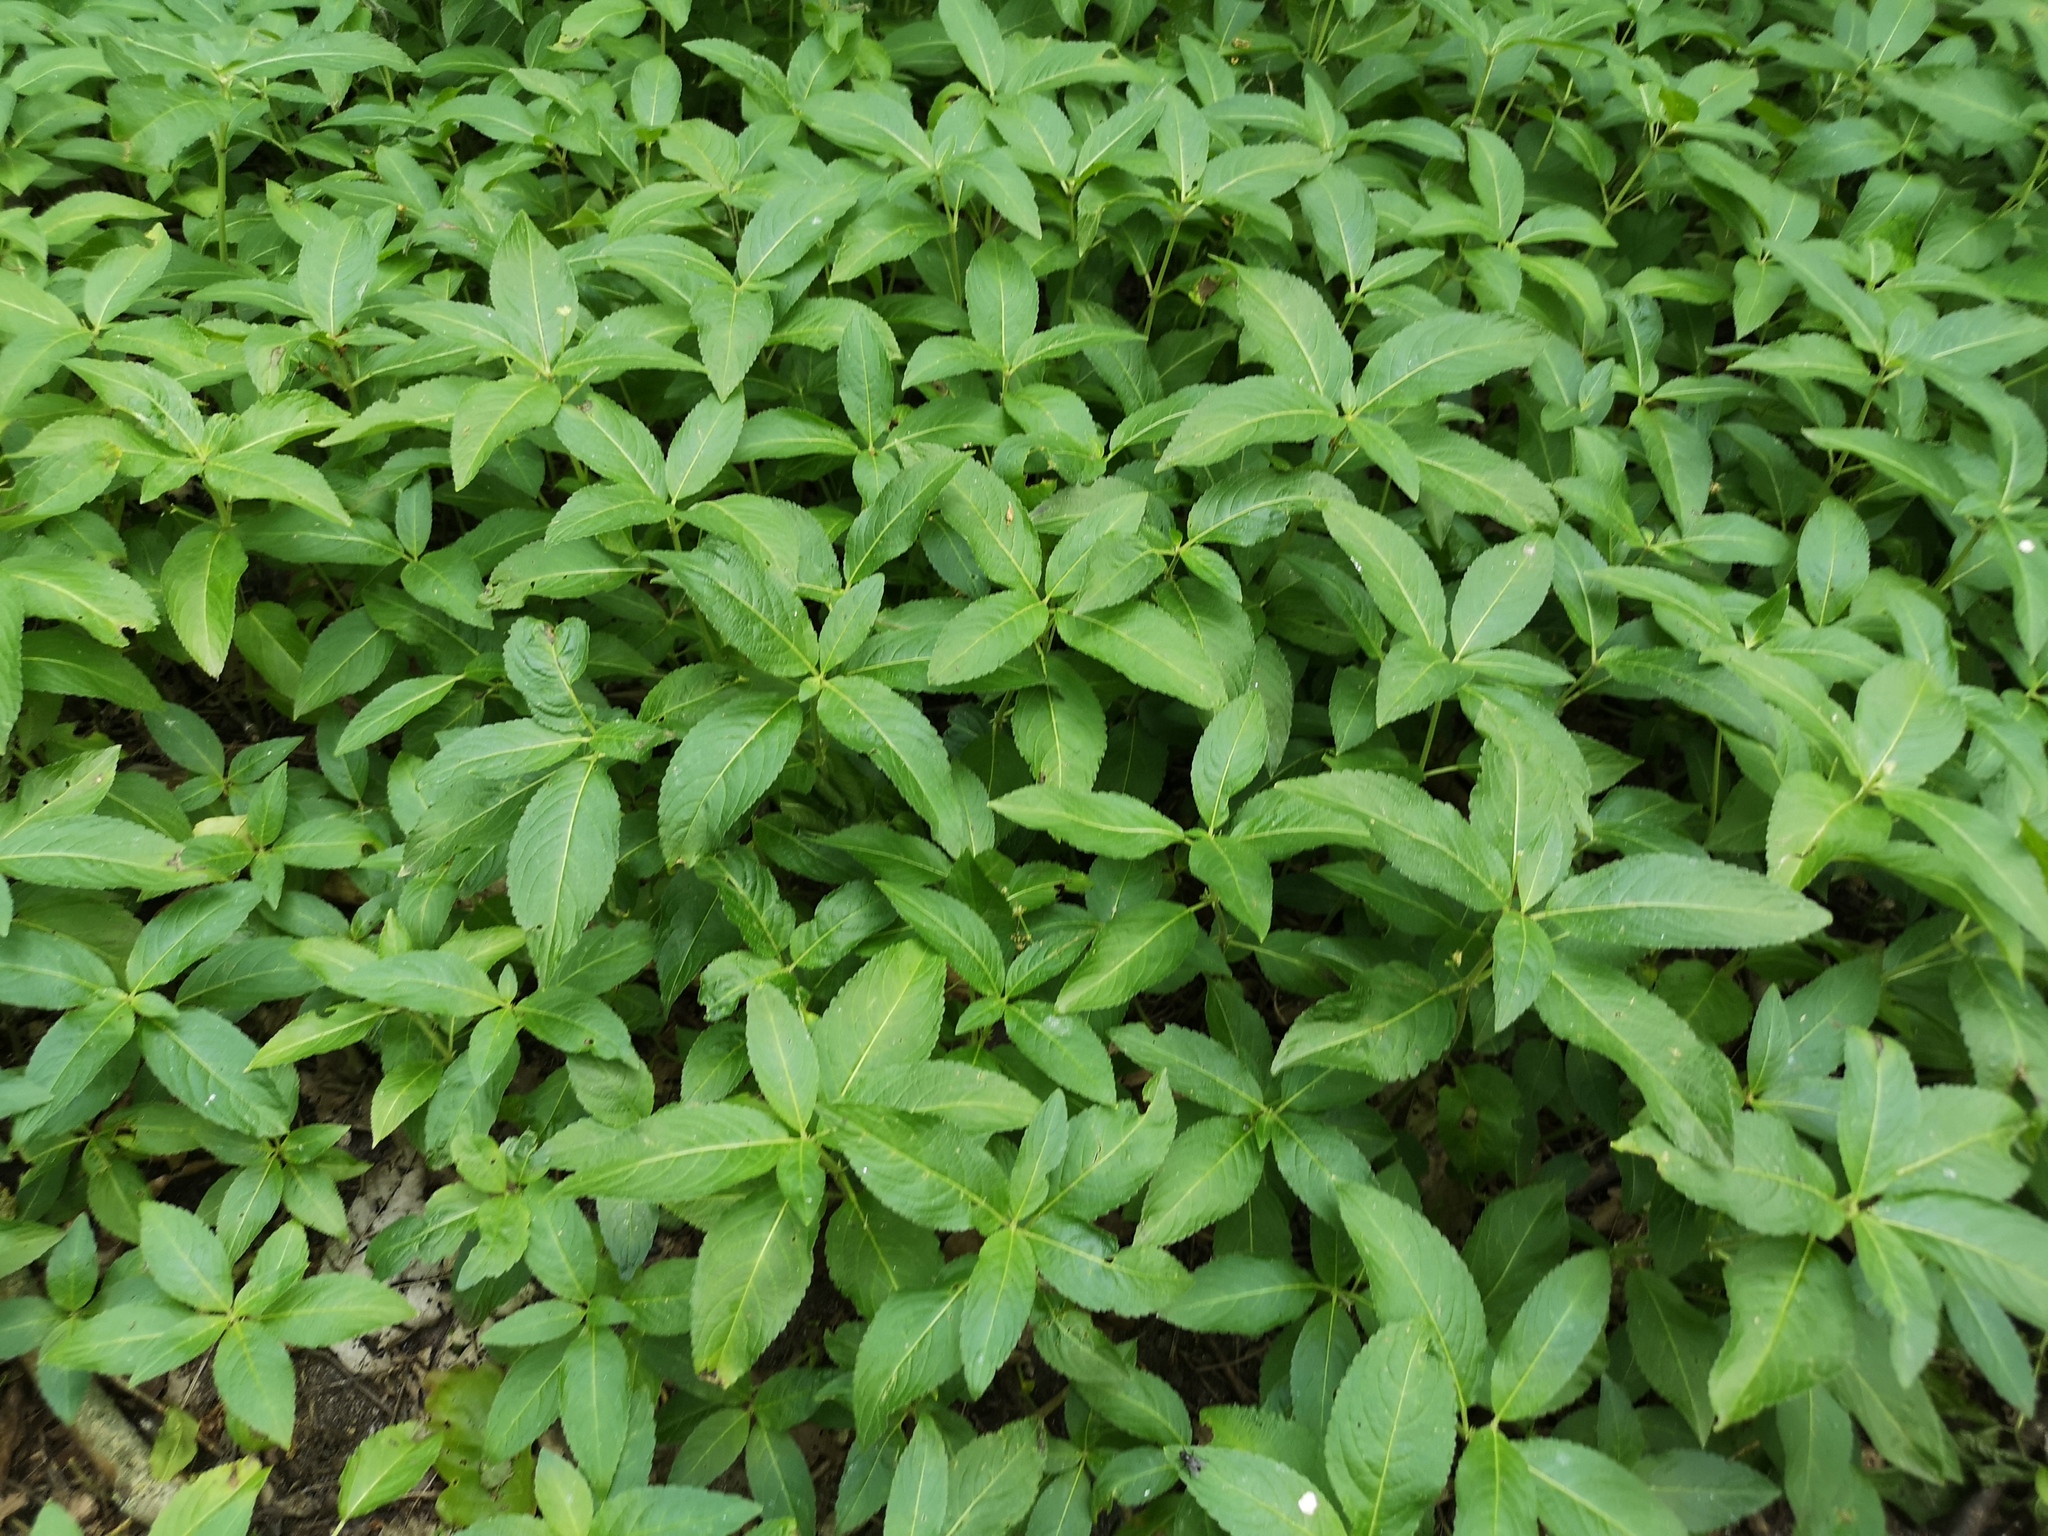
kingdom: Plantae
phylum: Tracheophyta
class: Magnoliopsida
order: Malpighiales
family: Euphorbiaceae
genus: Mercurialis
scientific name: Mercurialis perennis
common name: Dog mercury
